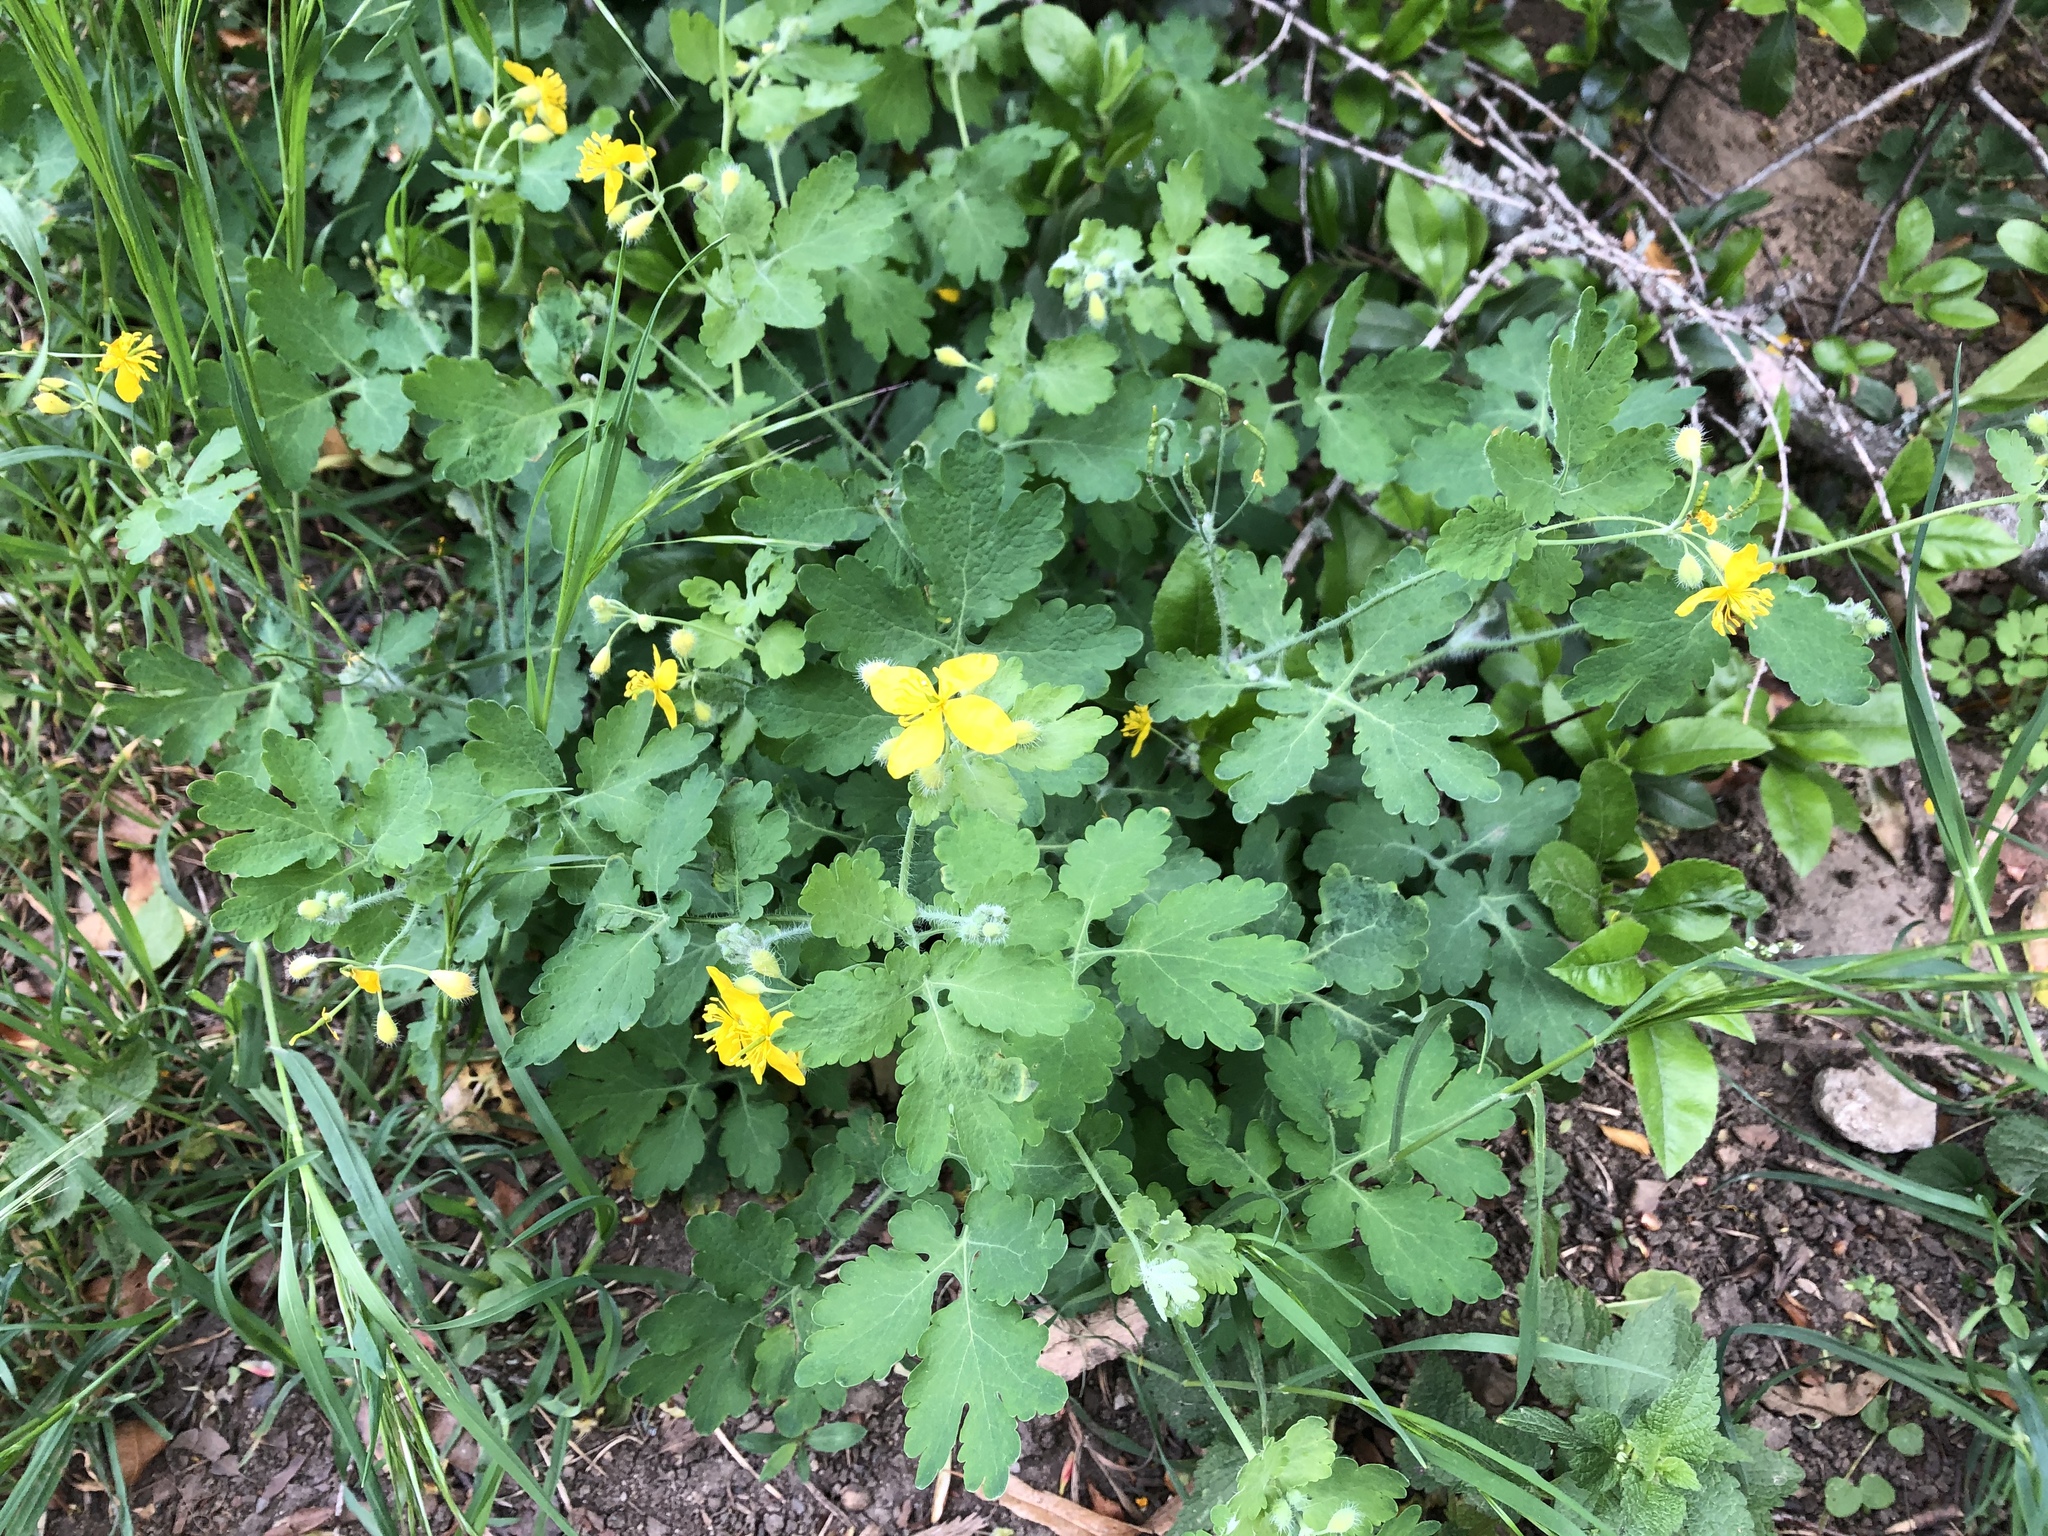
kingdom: Plantae
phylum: Tracheophyta
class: Magnoliopsida
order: Ranunculales
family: Papaveraceae
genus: Chelidonium
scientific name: Chelidonium majus
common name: Greater celandine
